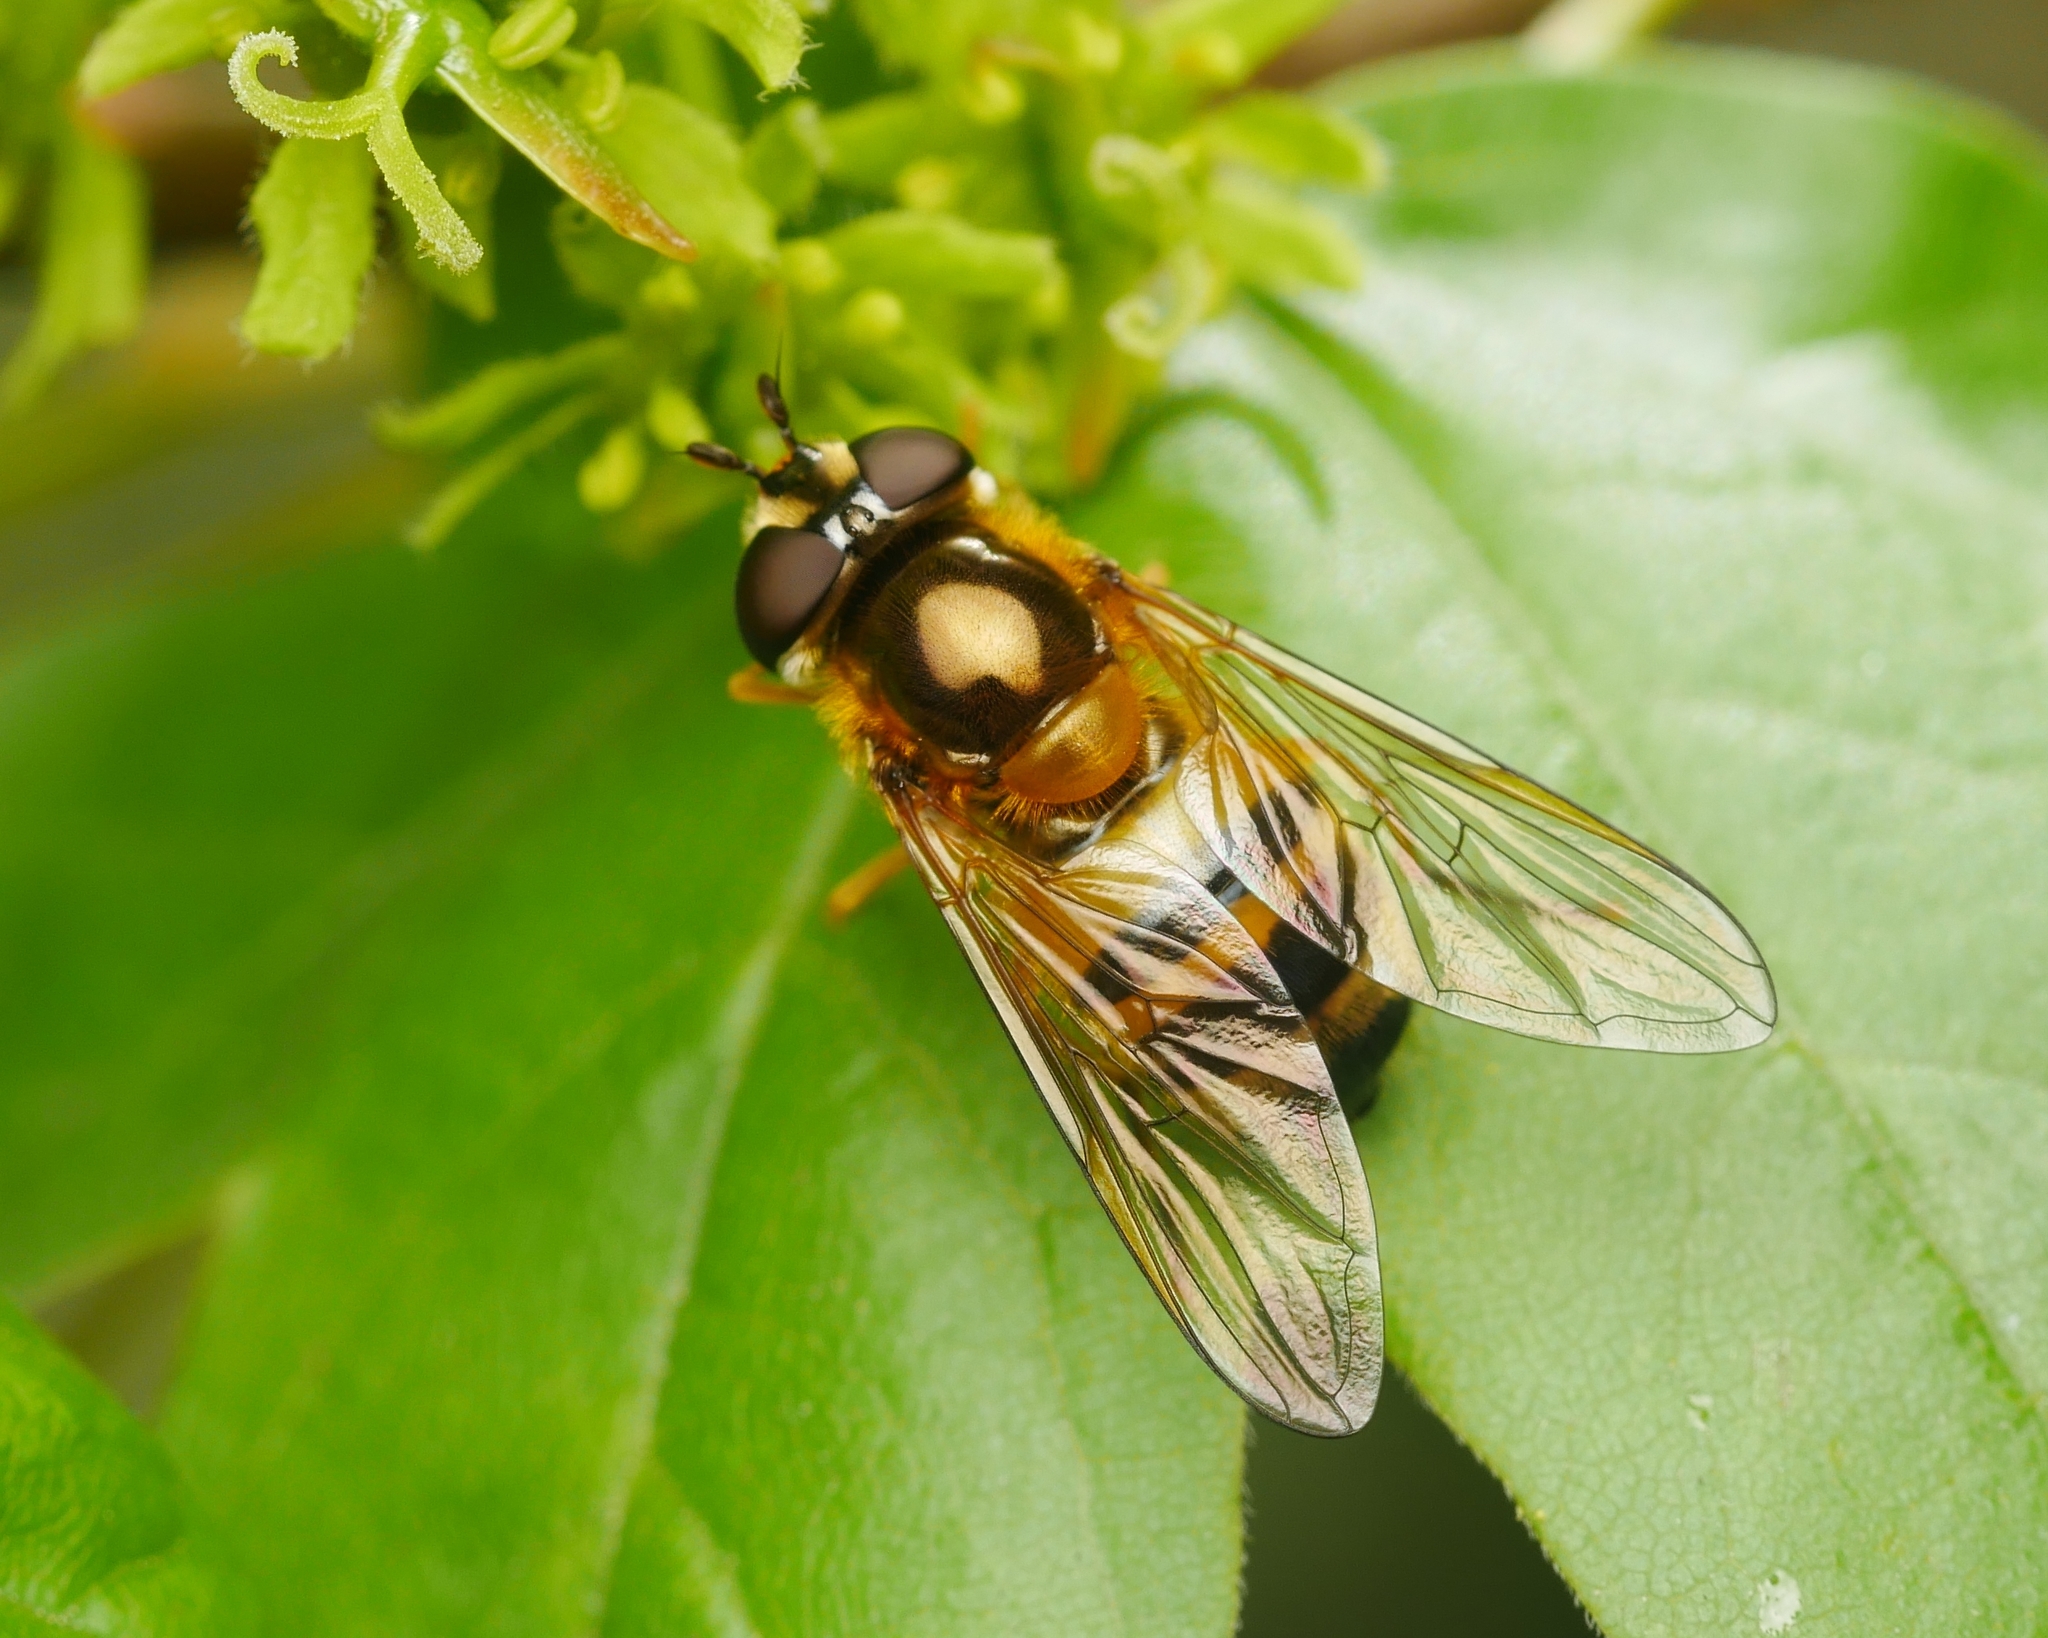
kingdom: Animalia
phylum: Arthropoda
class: Insecta
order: Diptera
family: Syrphidae
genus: Epistrophe
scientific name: Epistrophe eligans
